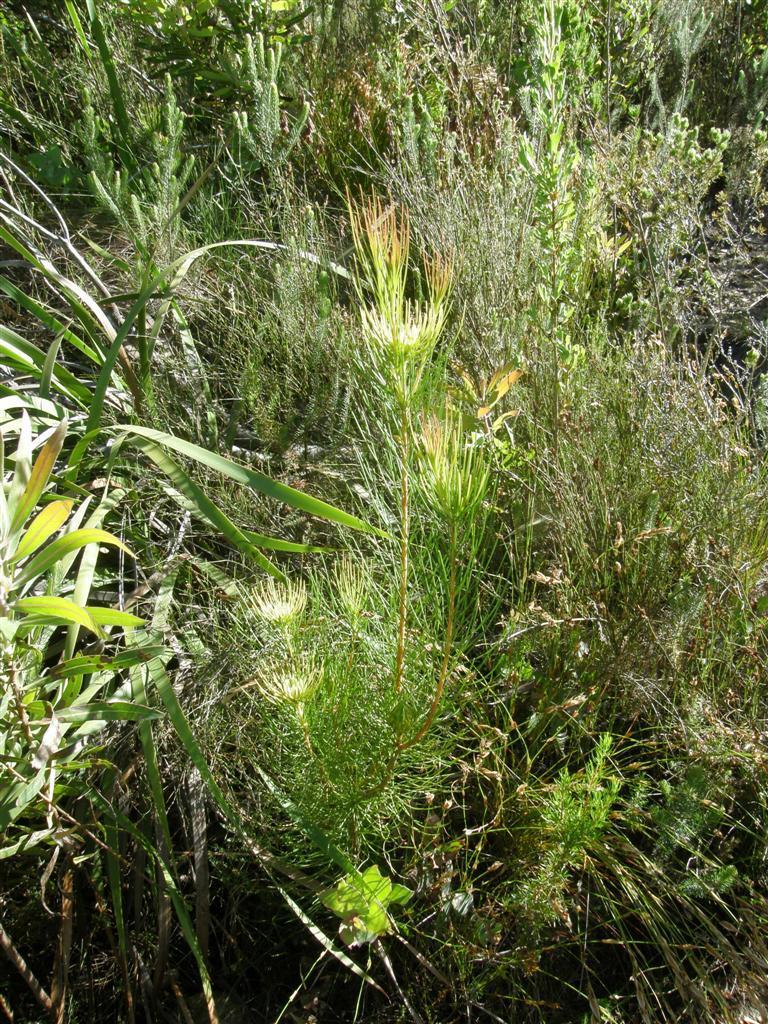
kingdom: Plantae
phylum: Tracheophyta
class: Magnoliopsida
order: Proteales
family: Proteaceae
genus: Aulax
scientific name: Aulax cancellata
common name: Channel-leaf featherbush
